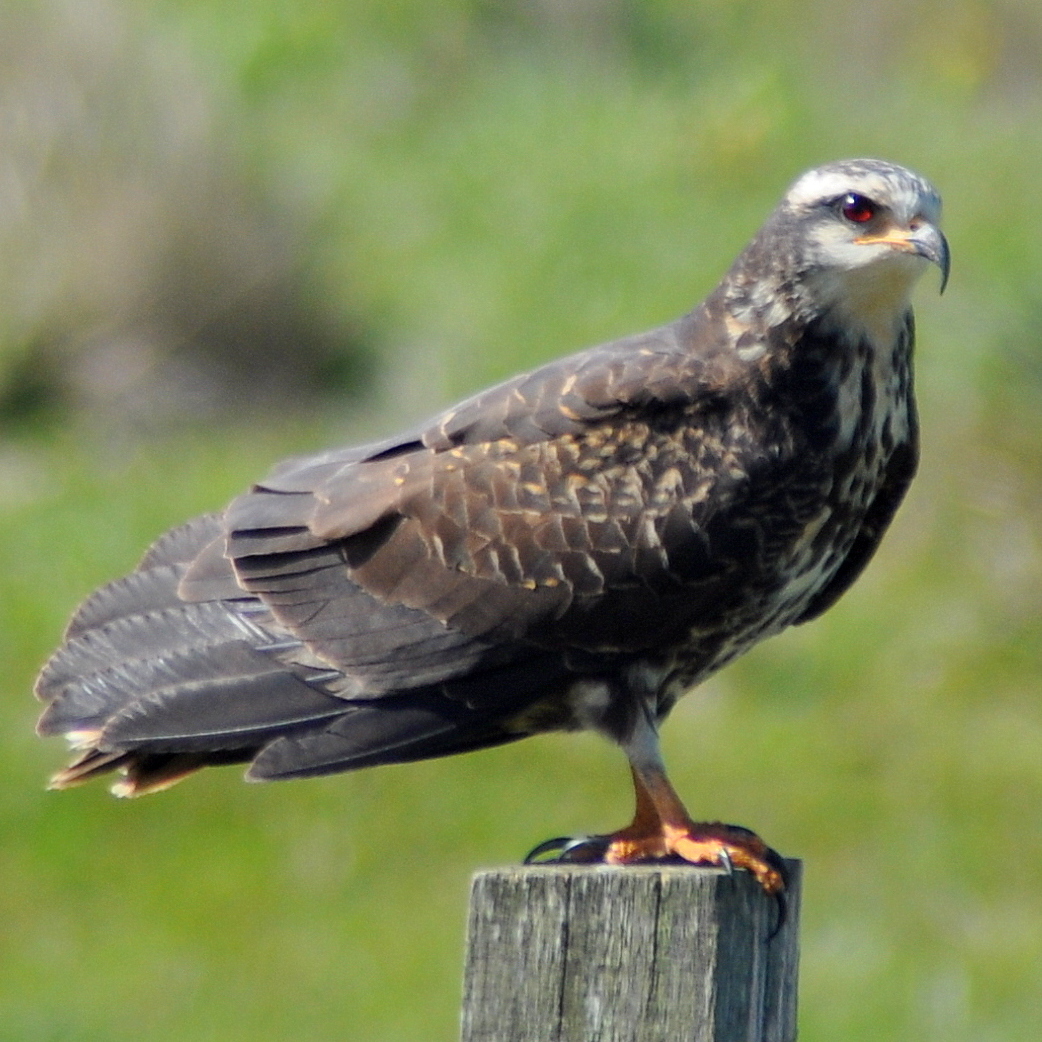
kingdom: Animalia
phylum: Chordata
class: Aves
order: Accipitriformes
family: Accipitridae
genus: Rostrhamus
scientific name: Rostrhamus sociabilis
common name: Snail kite
